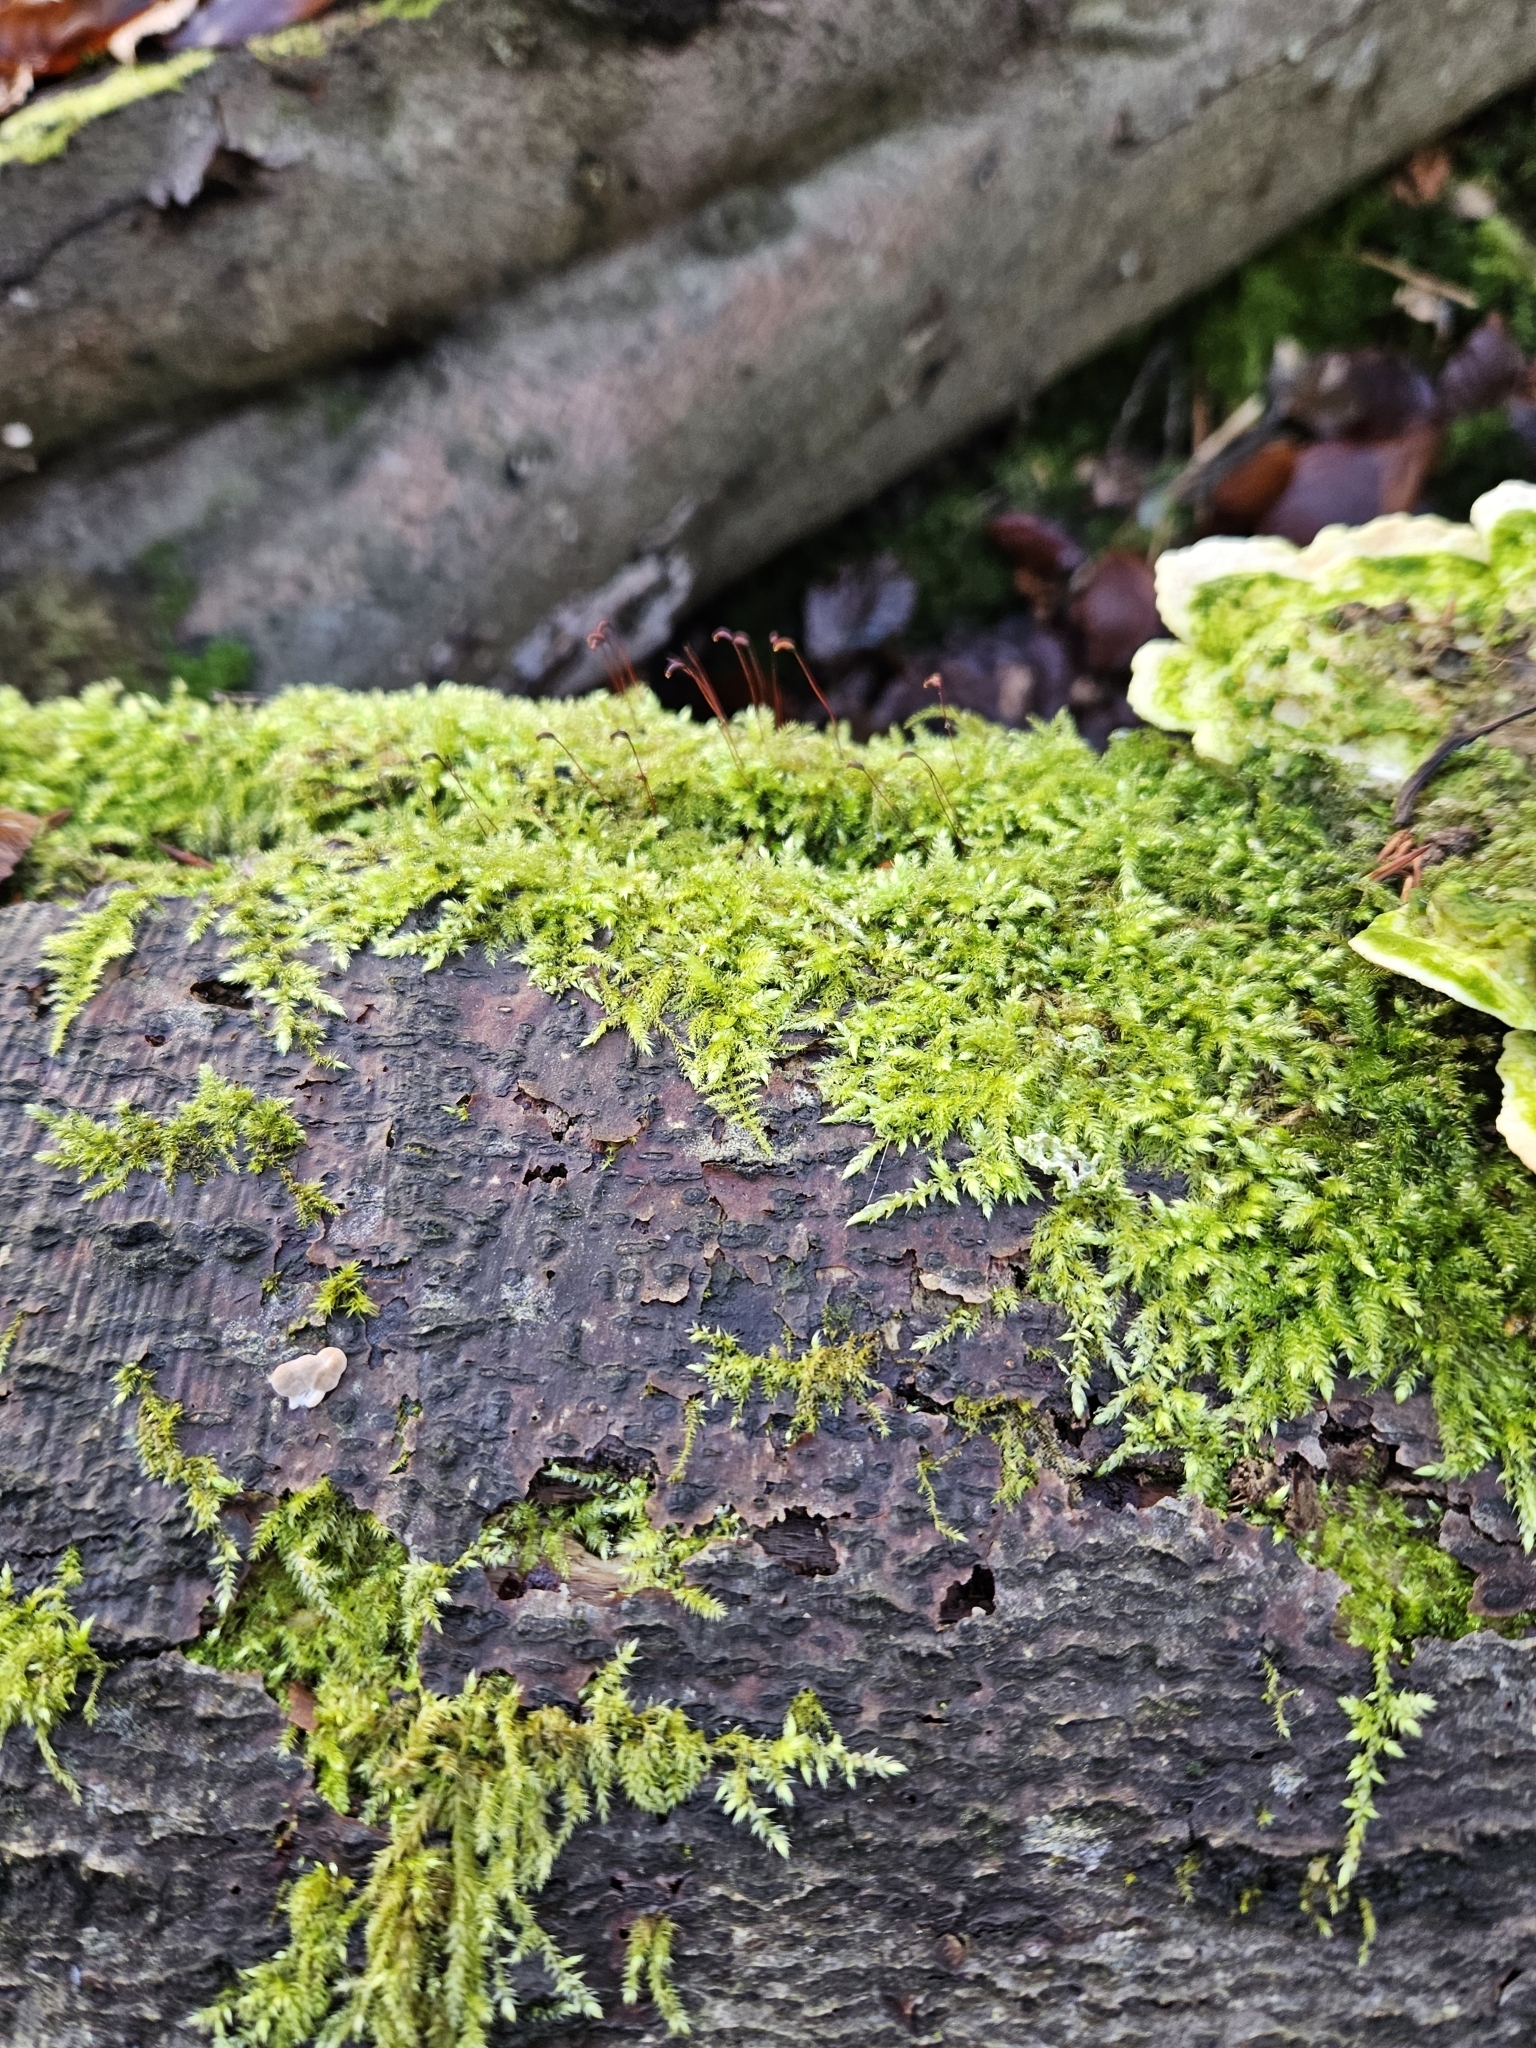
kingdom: Plantae
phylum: Bryophyta
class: Bryopsida
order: Hypnales
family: Brachytheciaceae
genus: Brachythecium
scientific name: Brachythecium rutabulum
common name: Rough-stalked feather-moss
